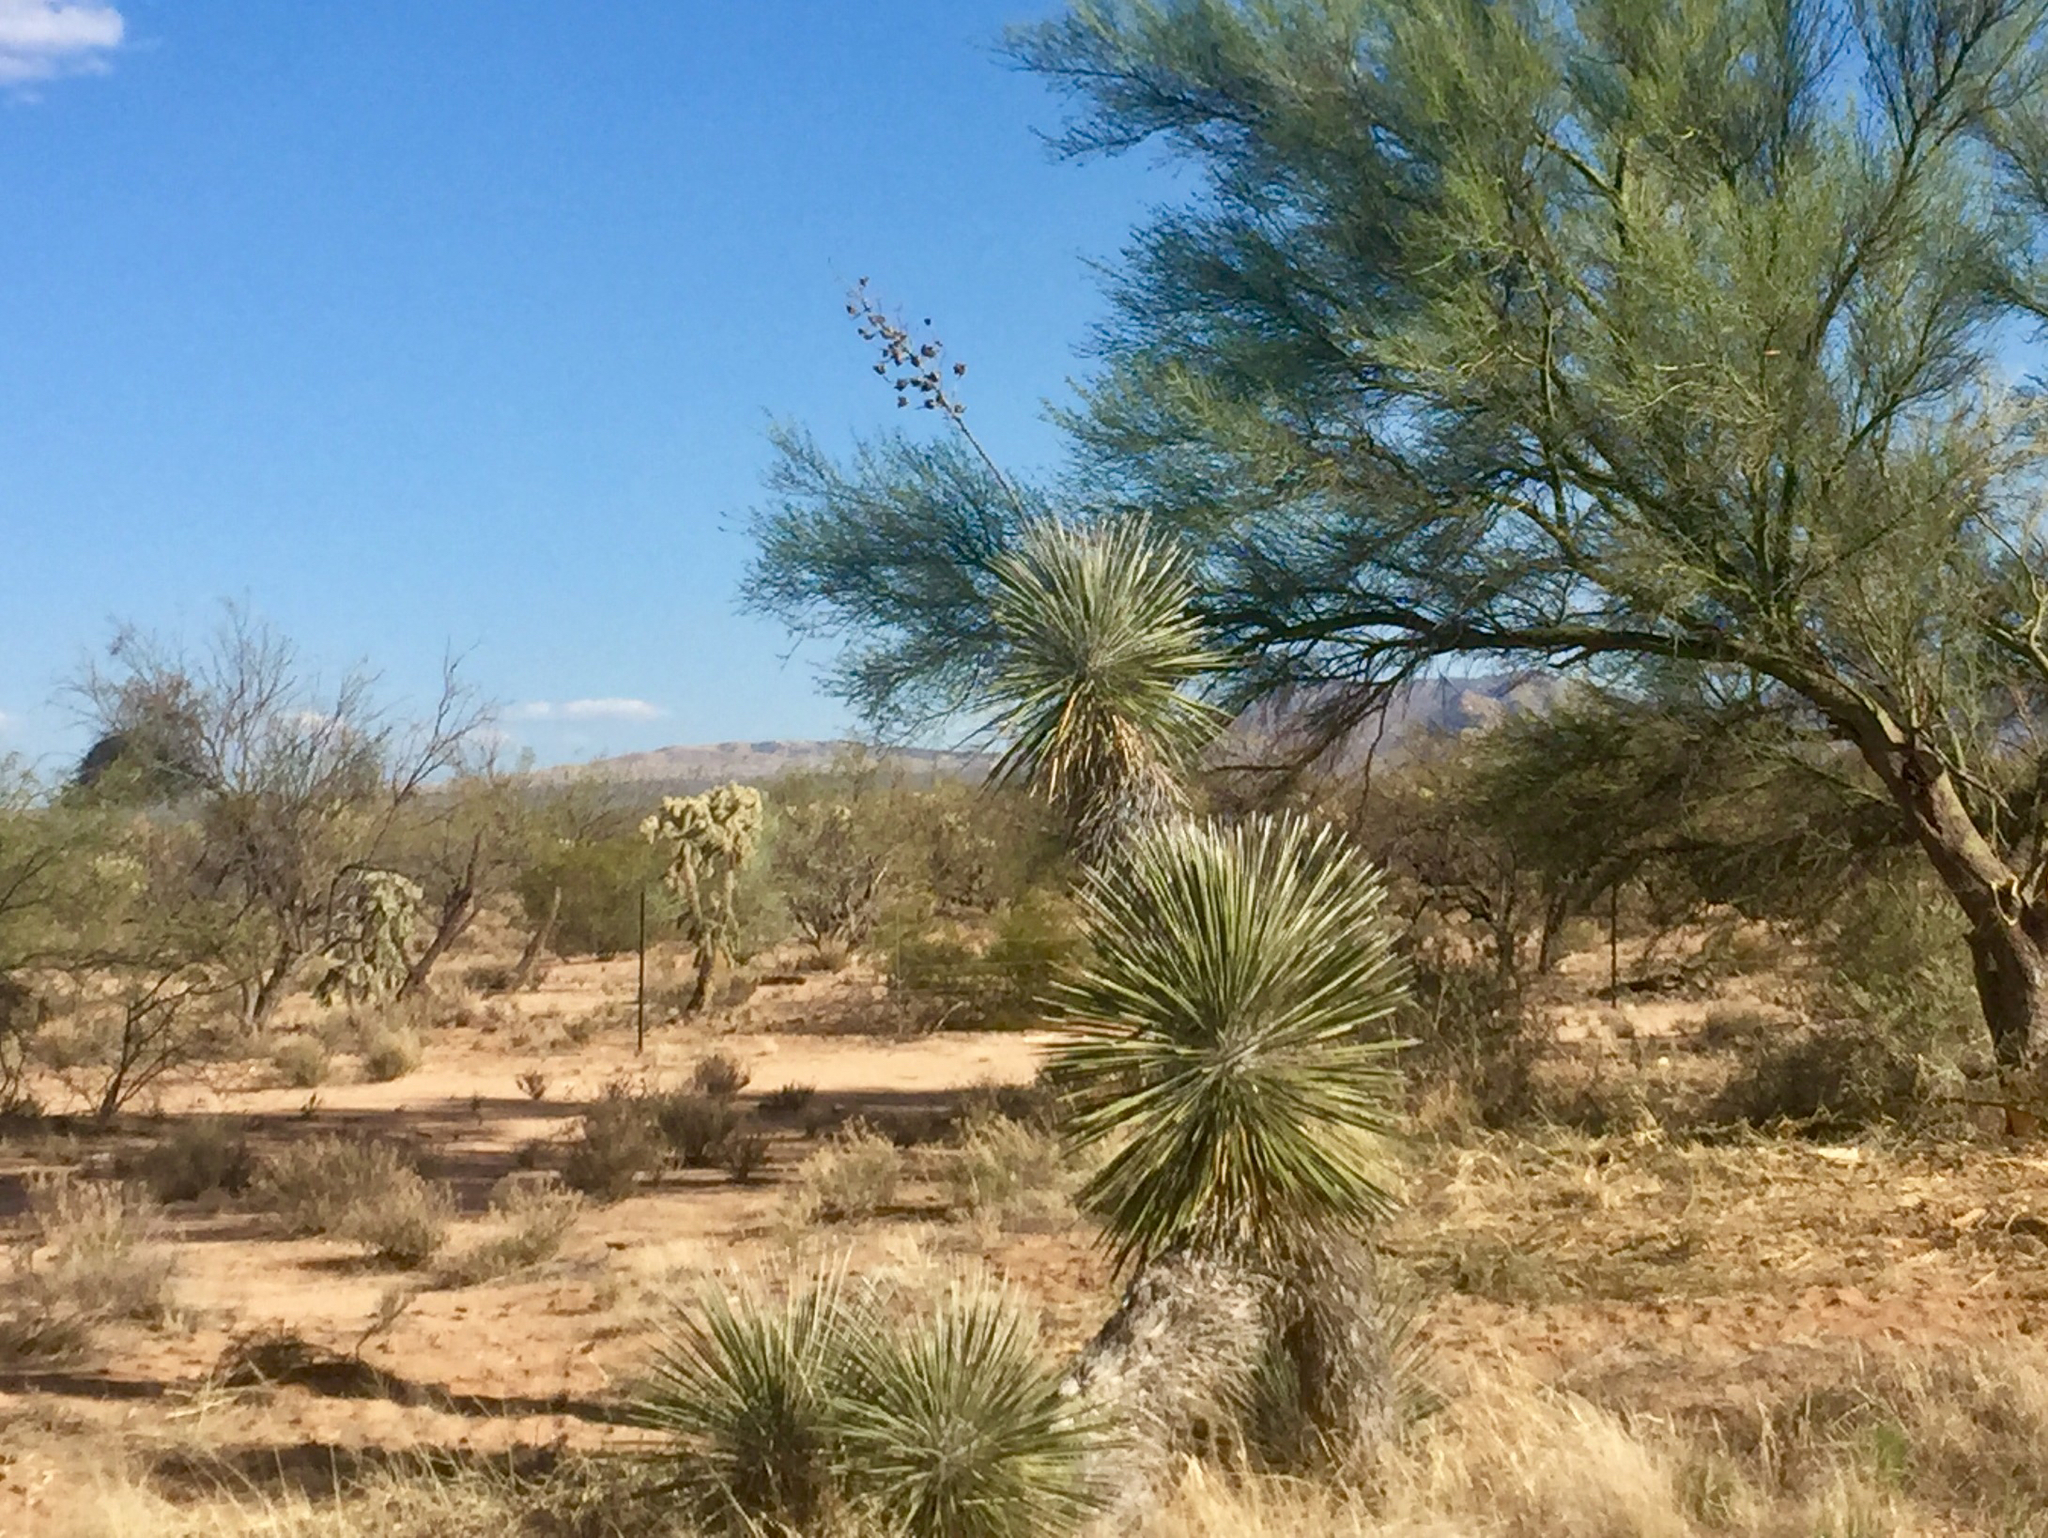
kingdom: Plantae
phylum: Tracheophyta
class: Liliopsida
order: Asparagales
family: Asparagaceae
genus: Yucca
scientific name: Yucca elata
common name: Palmella
